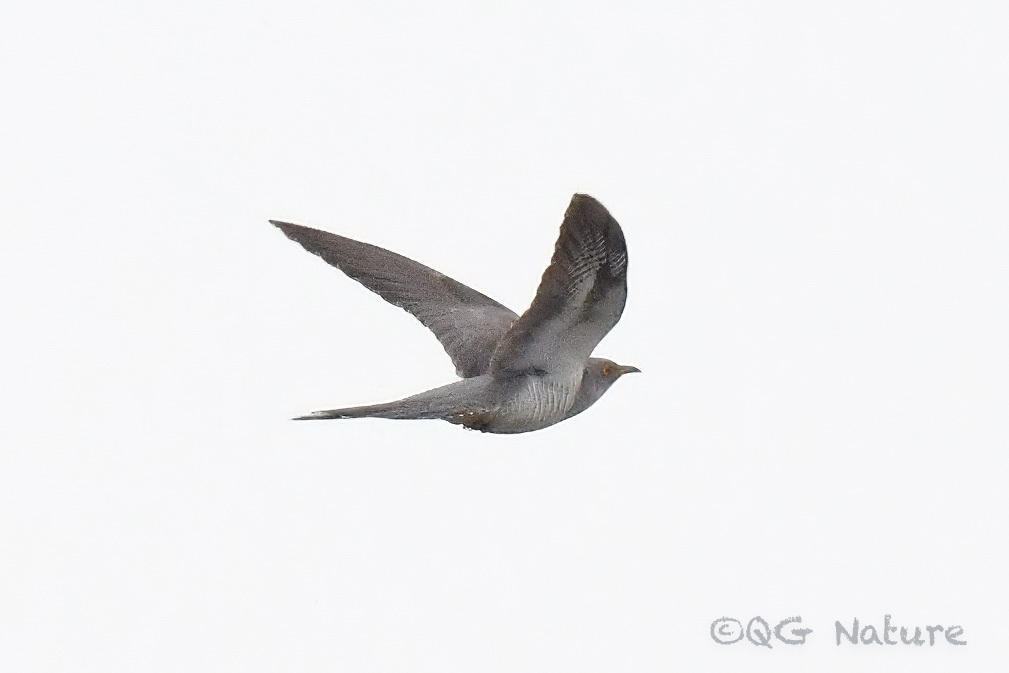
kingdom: Animalia
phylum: Chordata
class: Aves
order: Cuculiformes
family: Cuculidae
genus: Cuculus
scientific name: Cuculus canorus
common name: Common cuckoo
